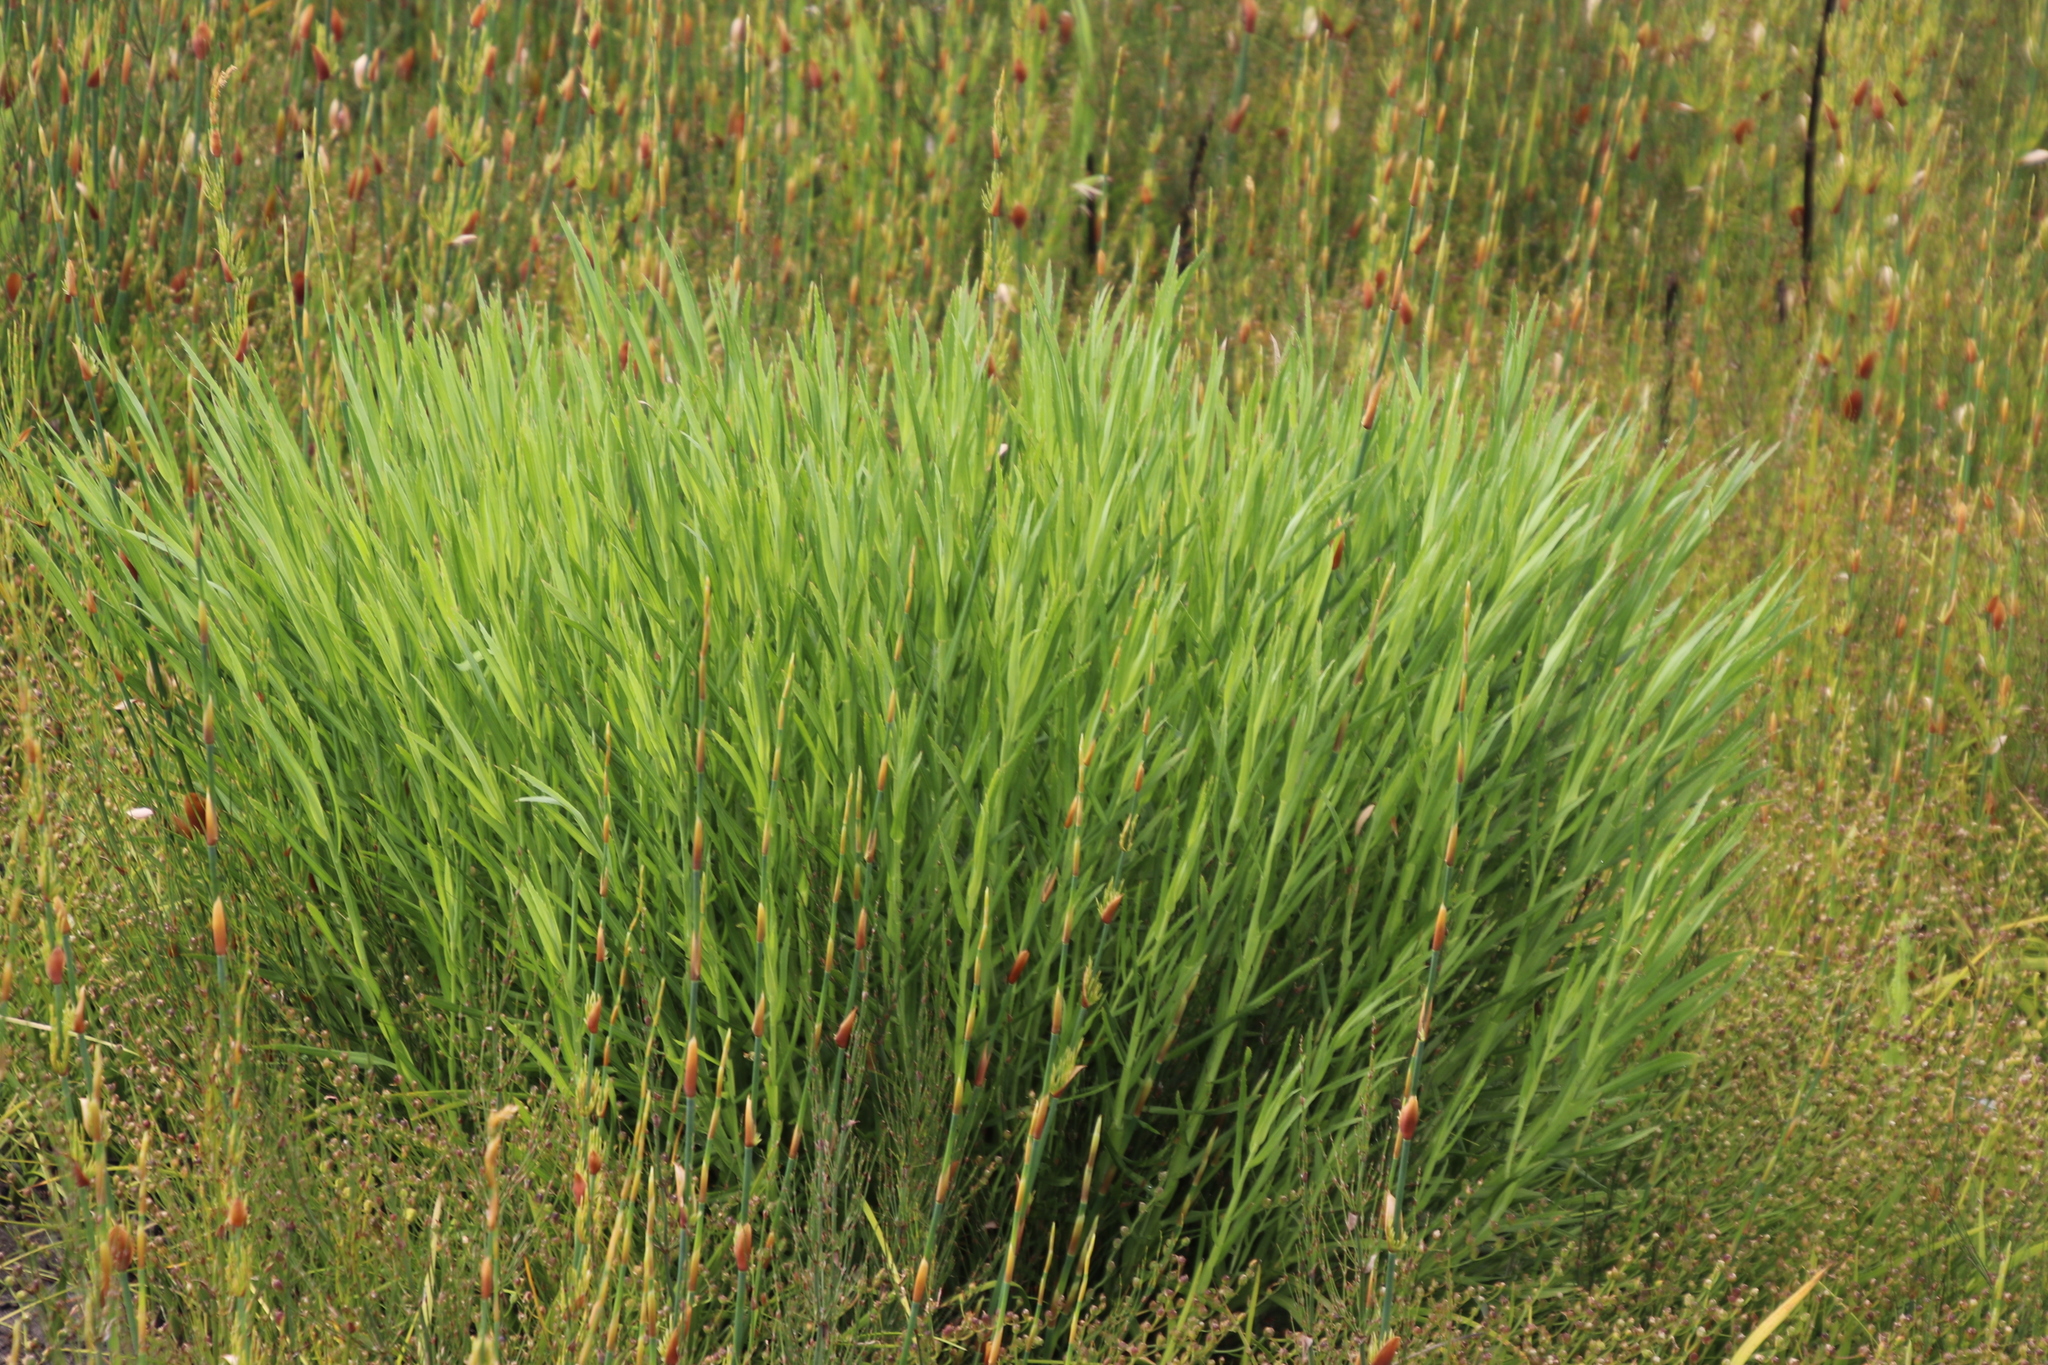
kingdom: Plantae
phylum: Tracheophyta
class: Magnoliopsida
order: Rosales
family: Rosaceae
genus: Cliffortia
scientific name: Cliffortia graminea
